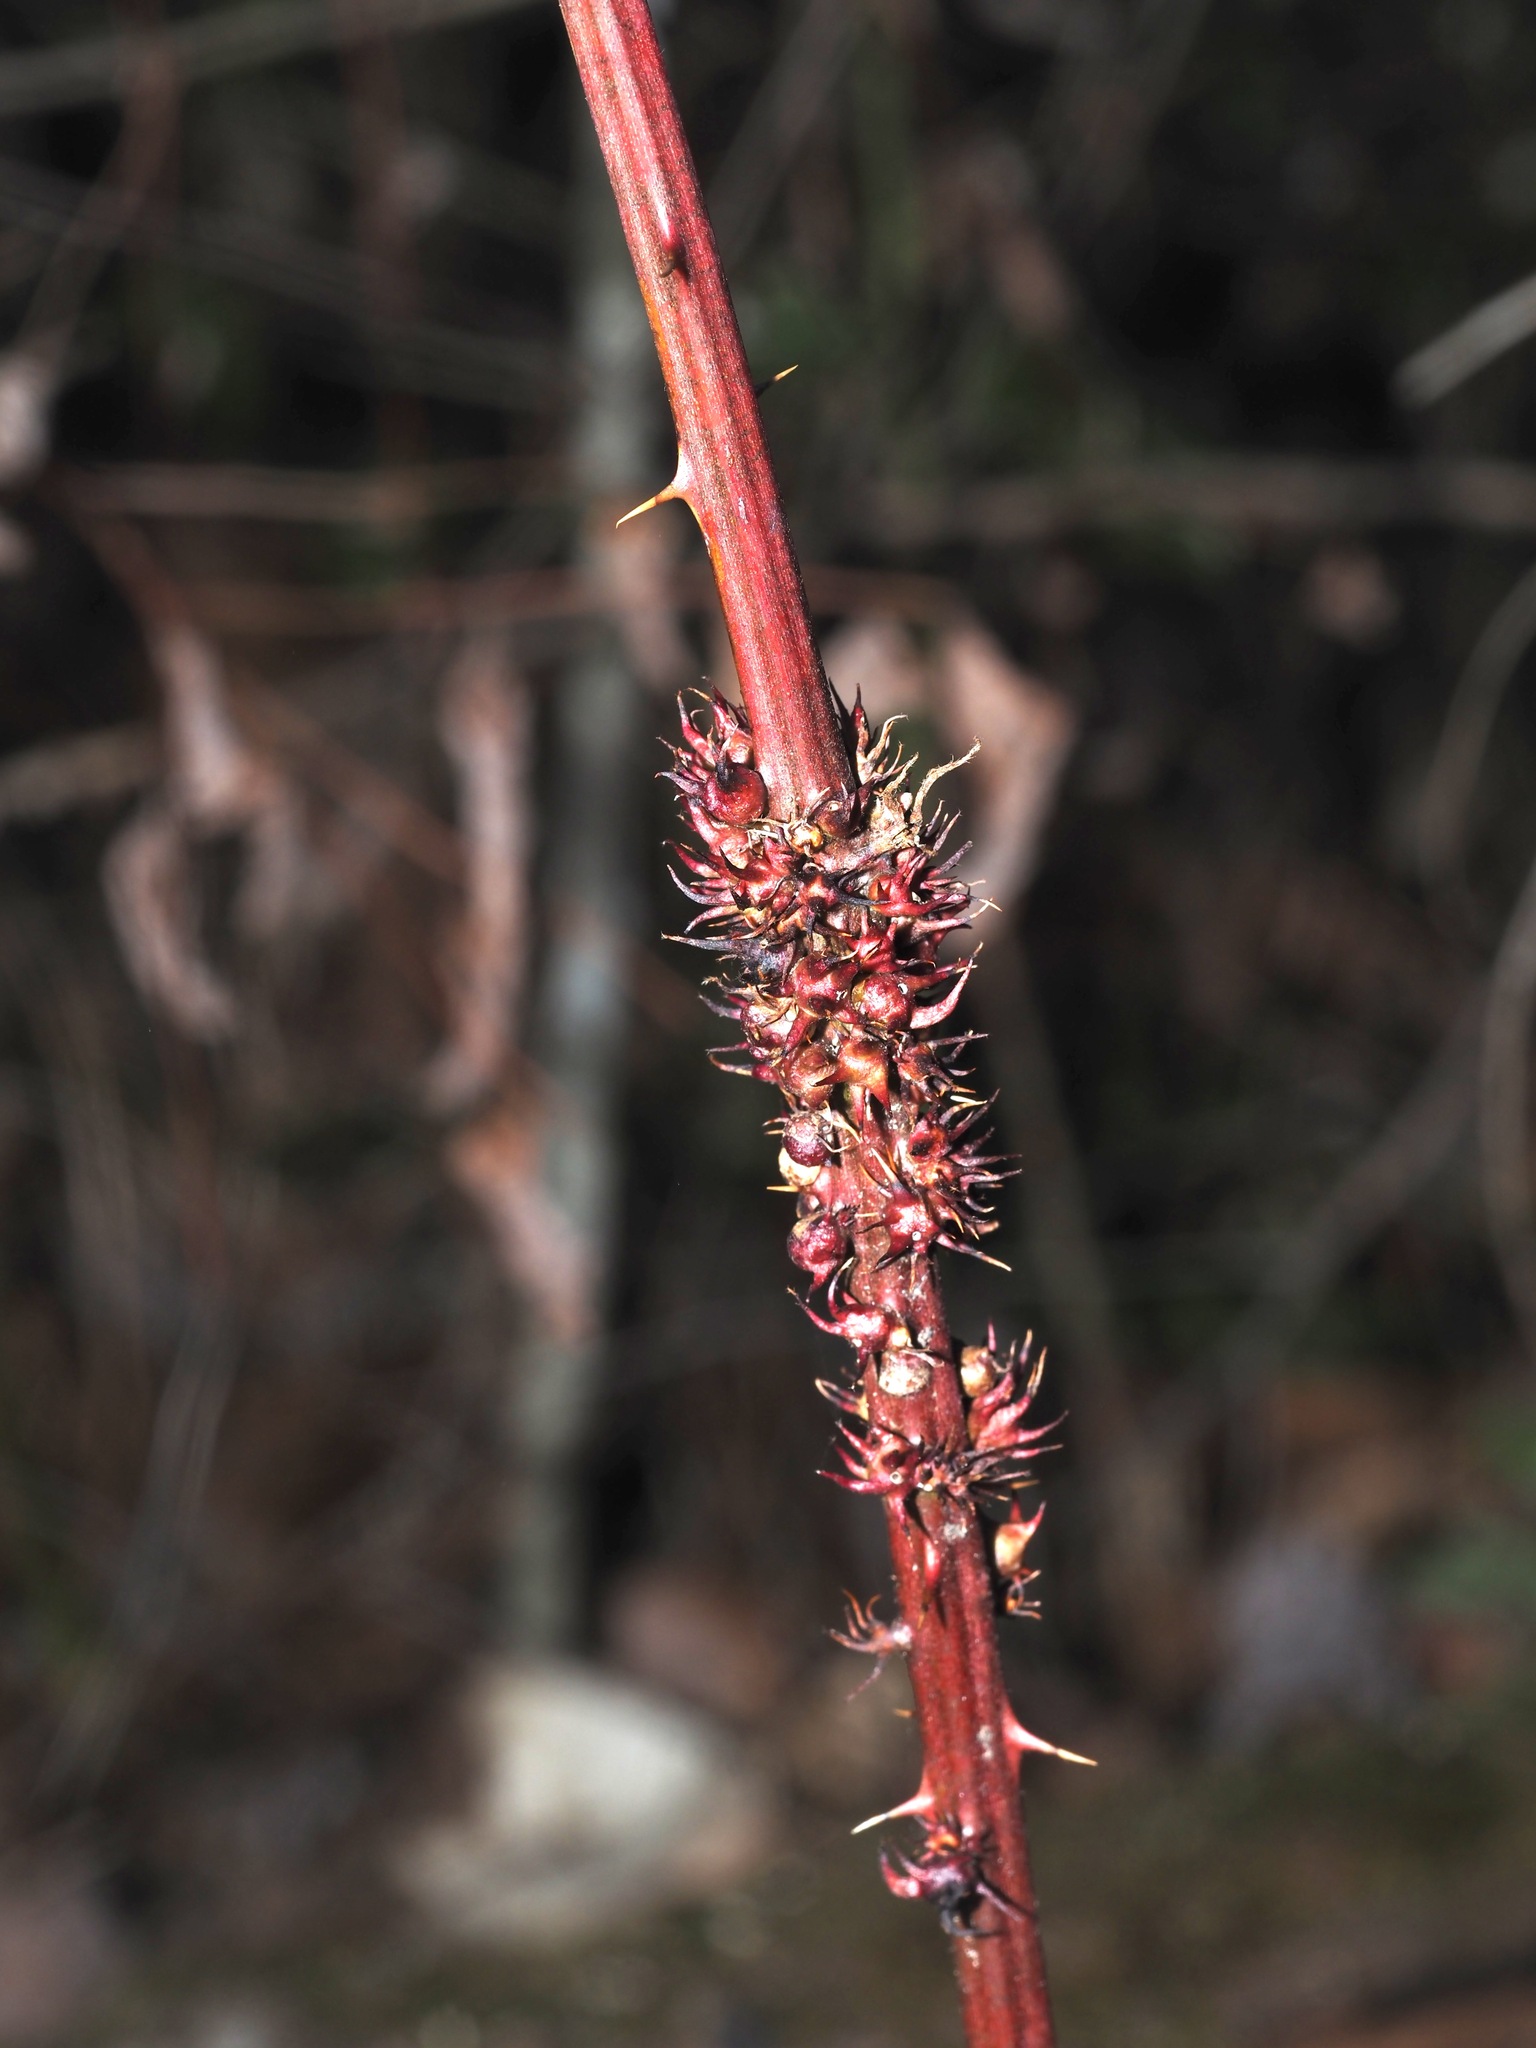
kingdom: Animalia
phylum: Arthropoda
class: Insecta
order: Hymenoptera
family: Cynipidae
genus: Diastrophus
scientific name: Diastrophus
